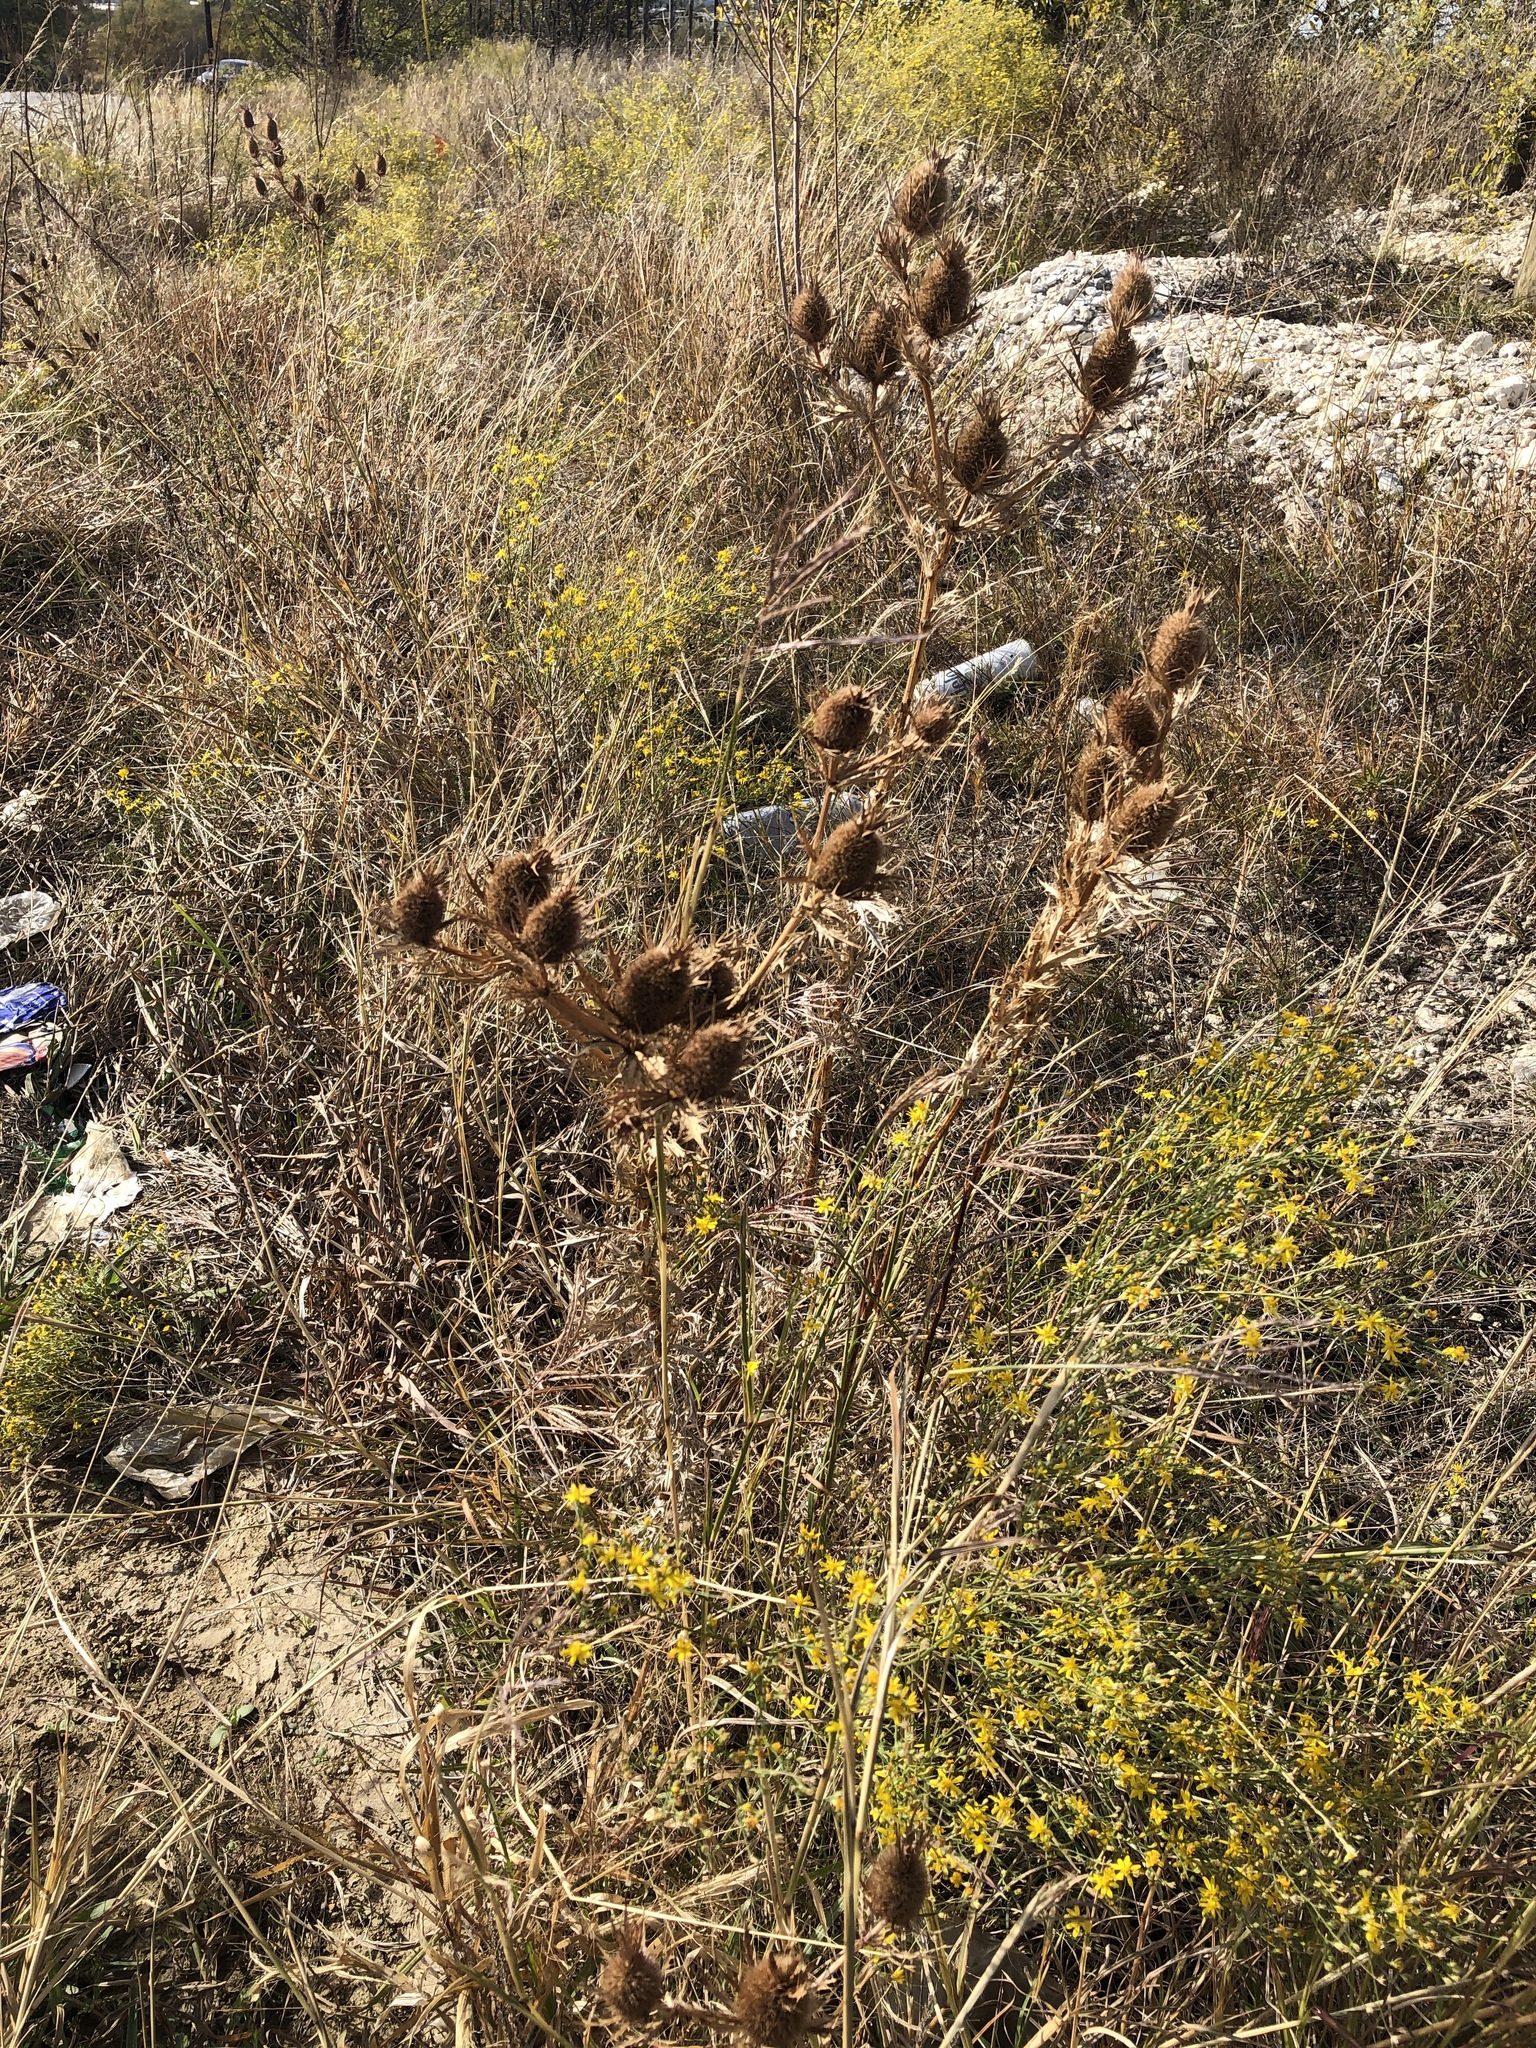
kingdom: Plantae
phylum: Tracheophyta
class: Magnoliopsida
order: Apiales
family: Apiaceae
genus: Eryngium
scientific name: Eryngium leavenworthii
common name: Leavenworth's eryngo
